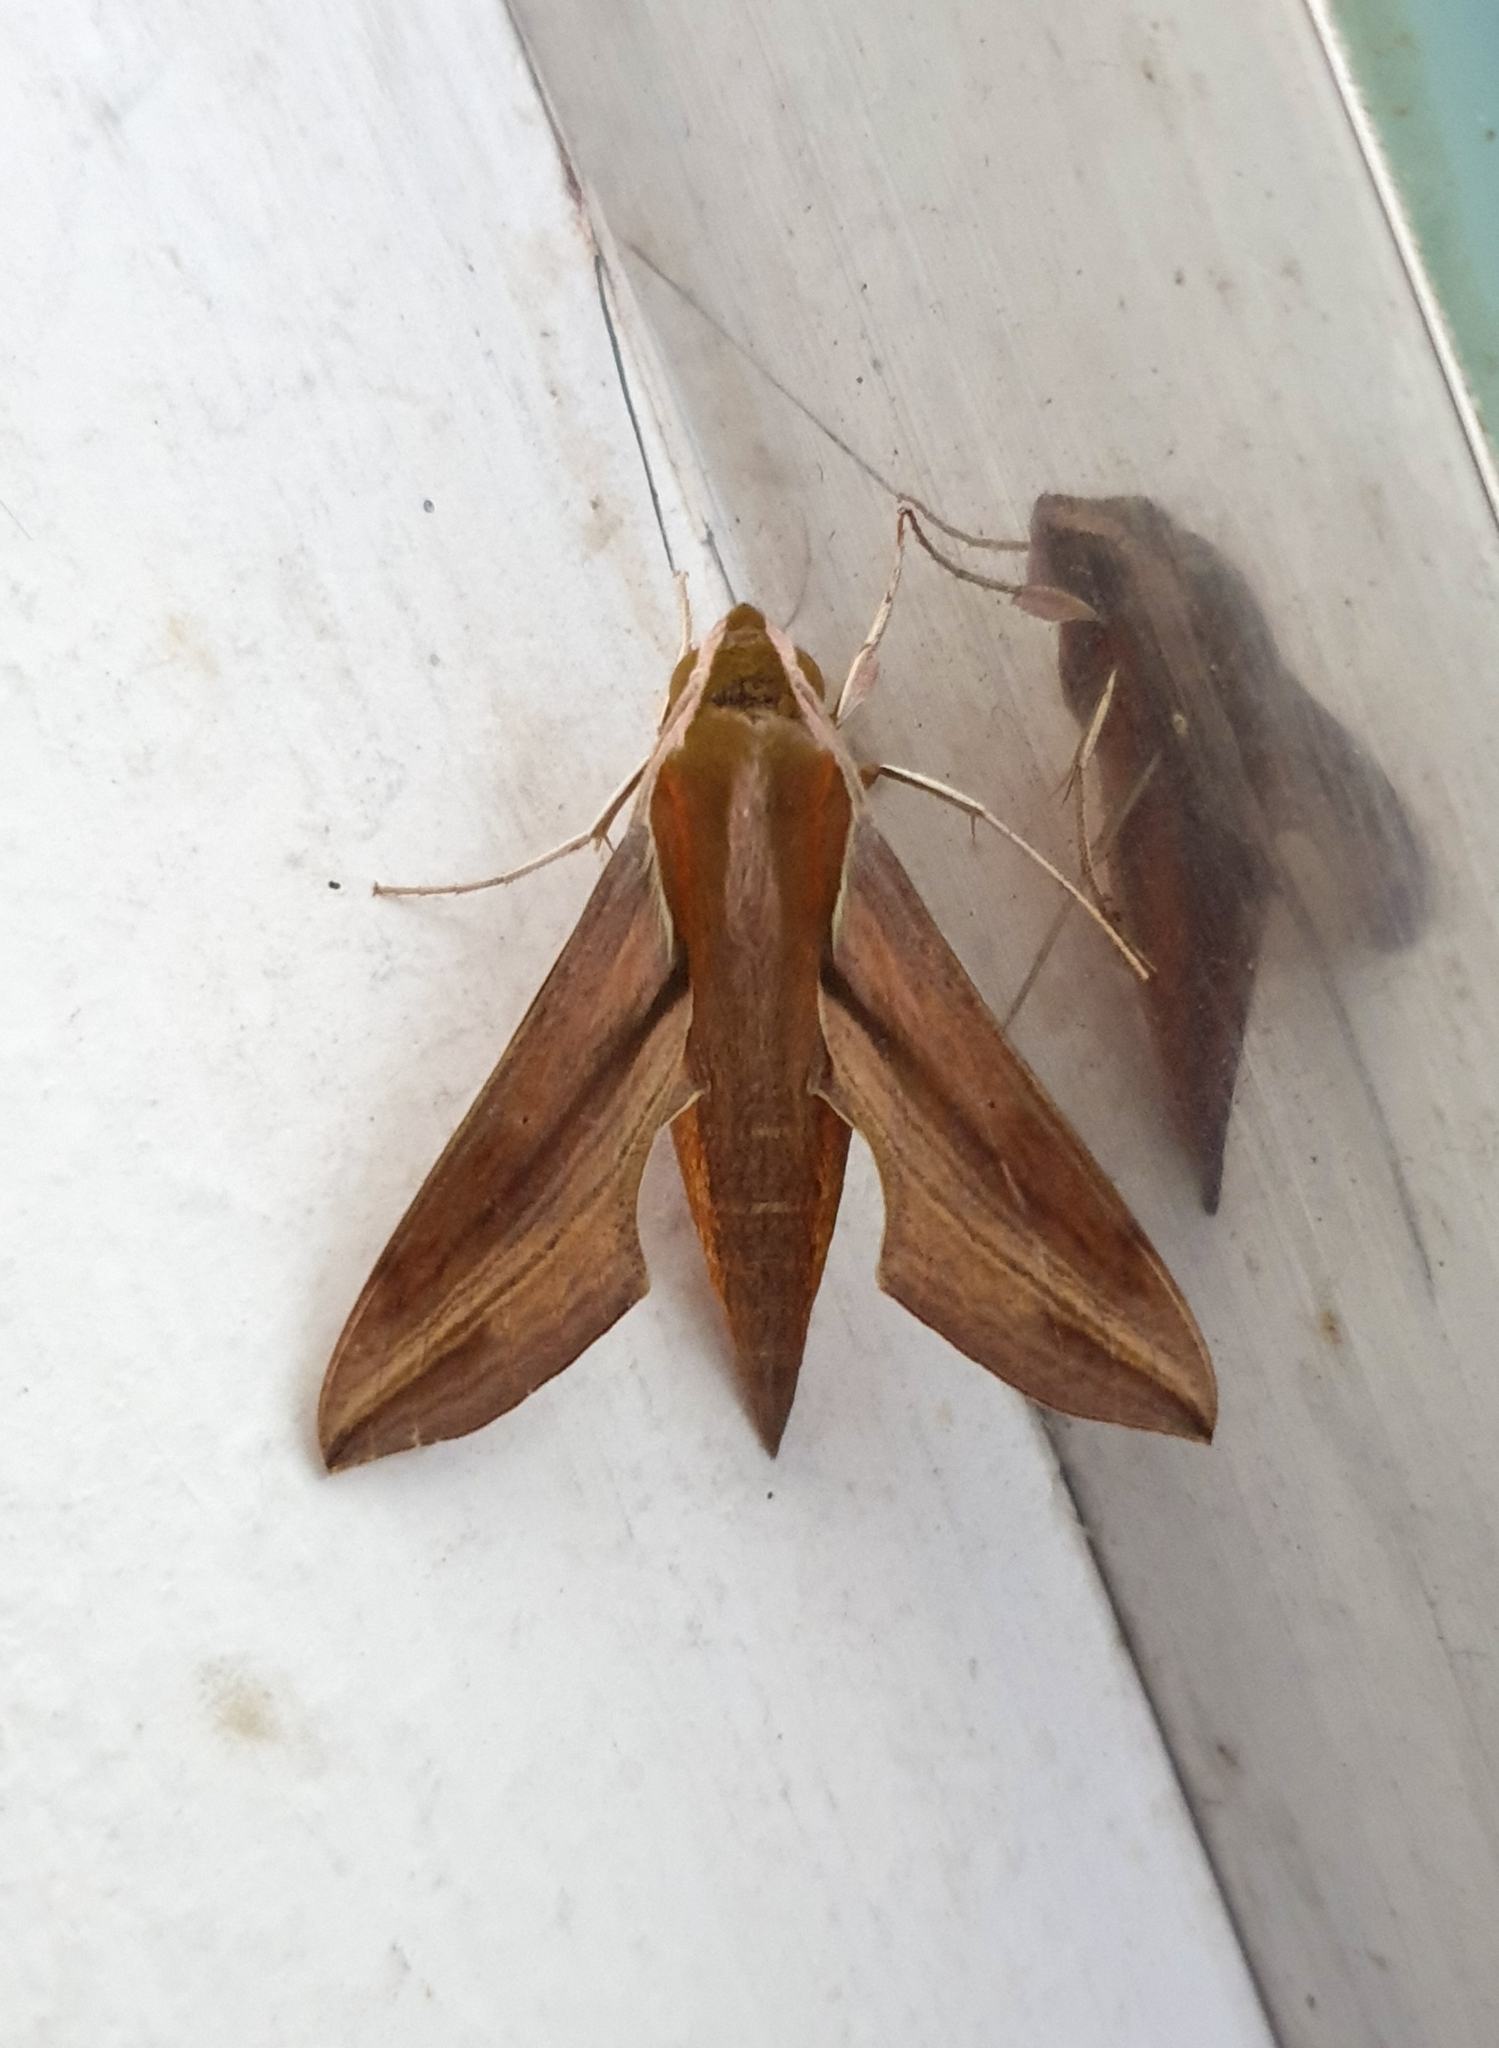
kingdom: Animalia
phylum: Arthropoda
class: Insecta
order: Lepidoptera
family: Sphingidae
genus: Hippotion
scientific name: Hippotion rosetta
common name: Vine hawk moth
